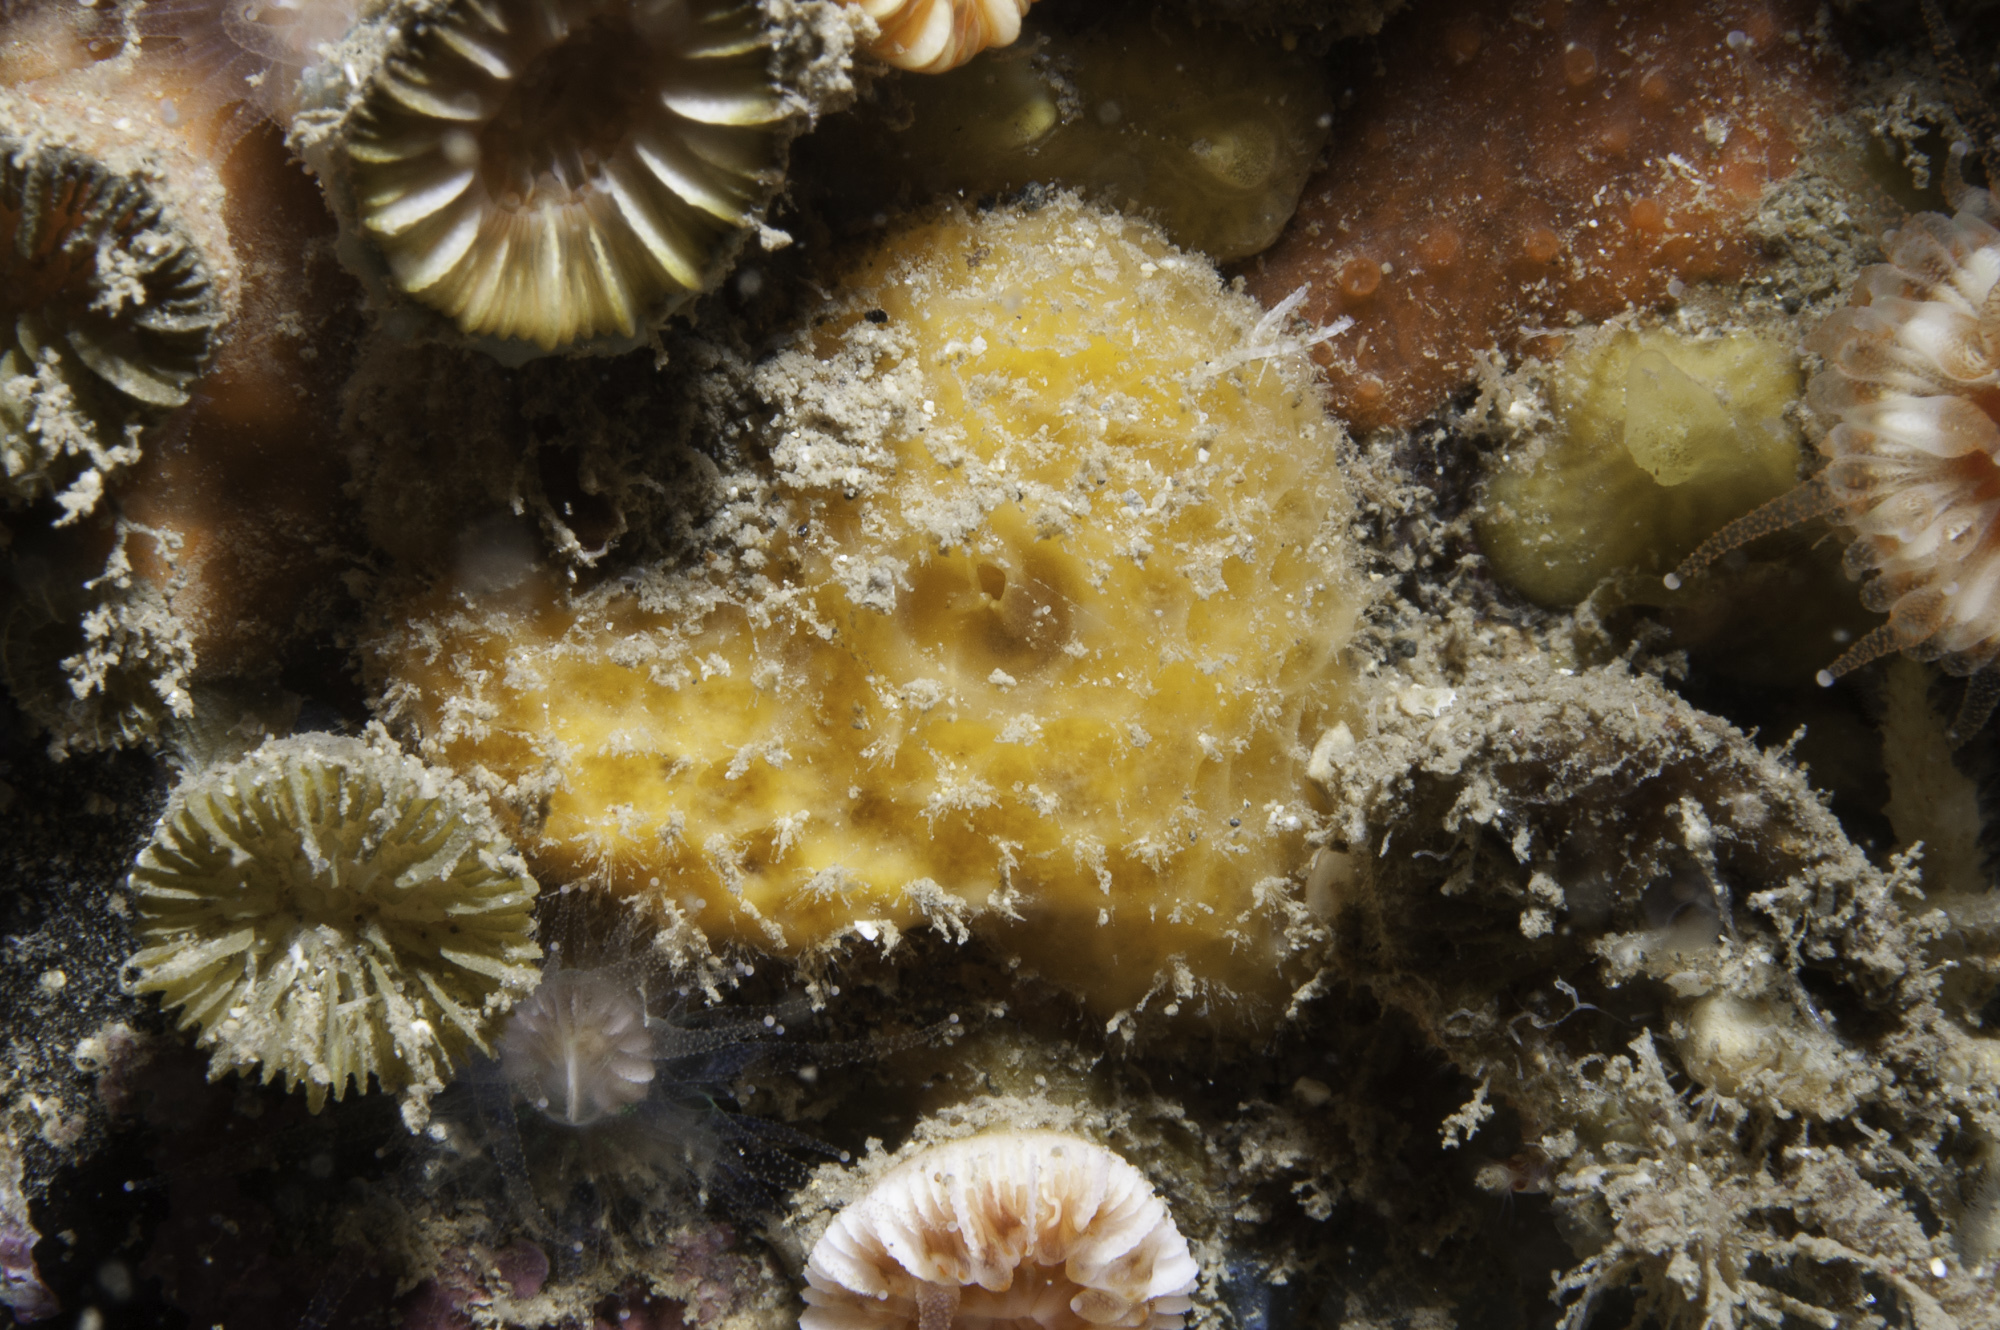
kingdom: Animalia
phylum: Porifera
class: Demospongiae
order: Axinellida
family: Stelligeridae
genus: Paratimea
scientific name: Paratimea aurantiaca
